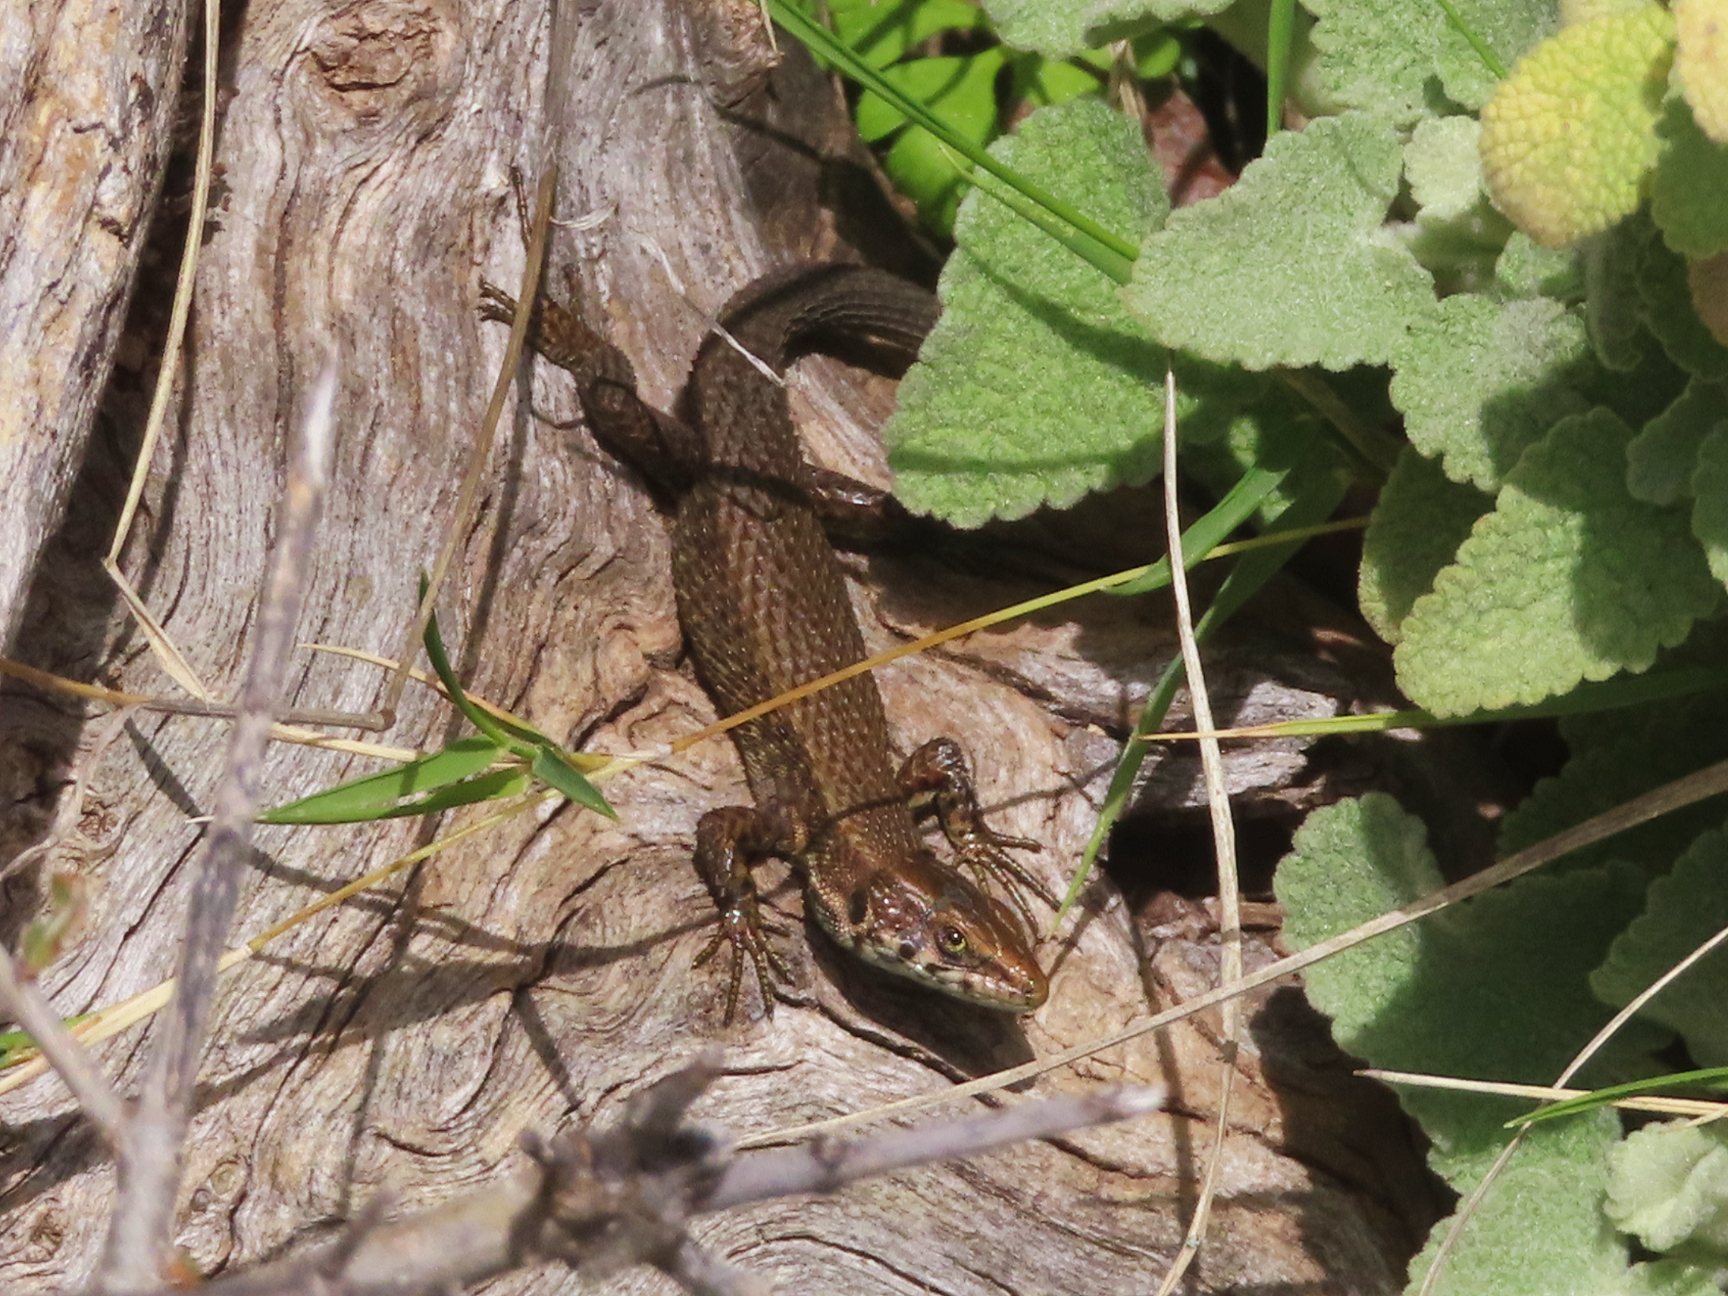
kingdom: Animalia
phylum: Chordata
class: Squamata
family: Lacertidae
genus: Algyroides
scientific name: Algyroides moreoticus
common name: Greek algyroides
